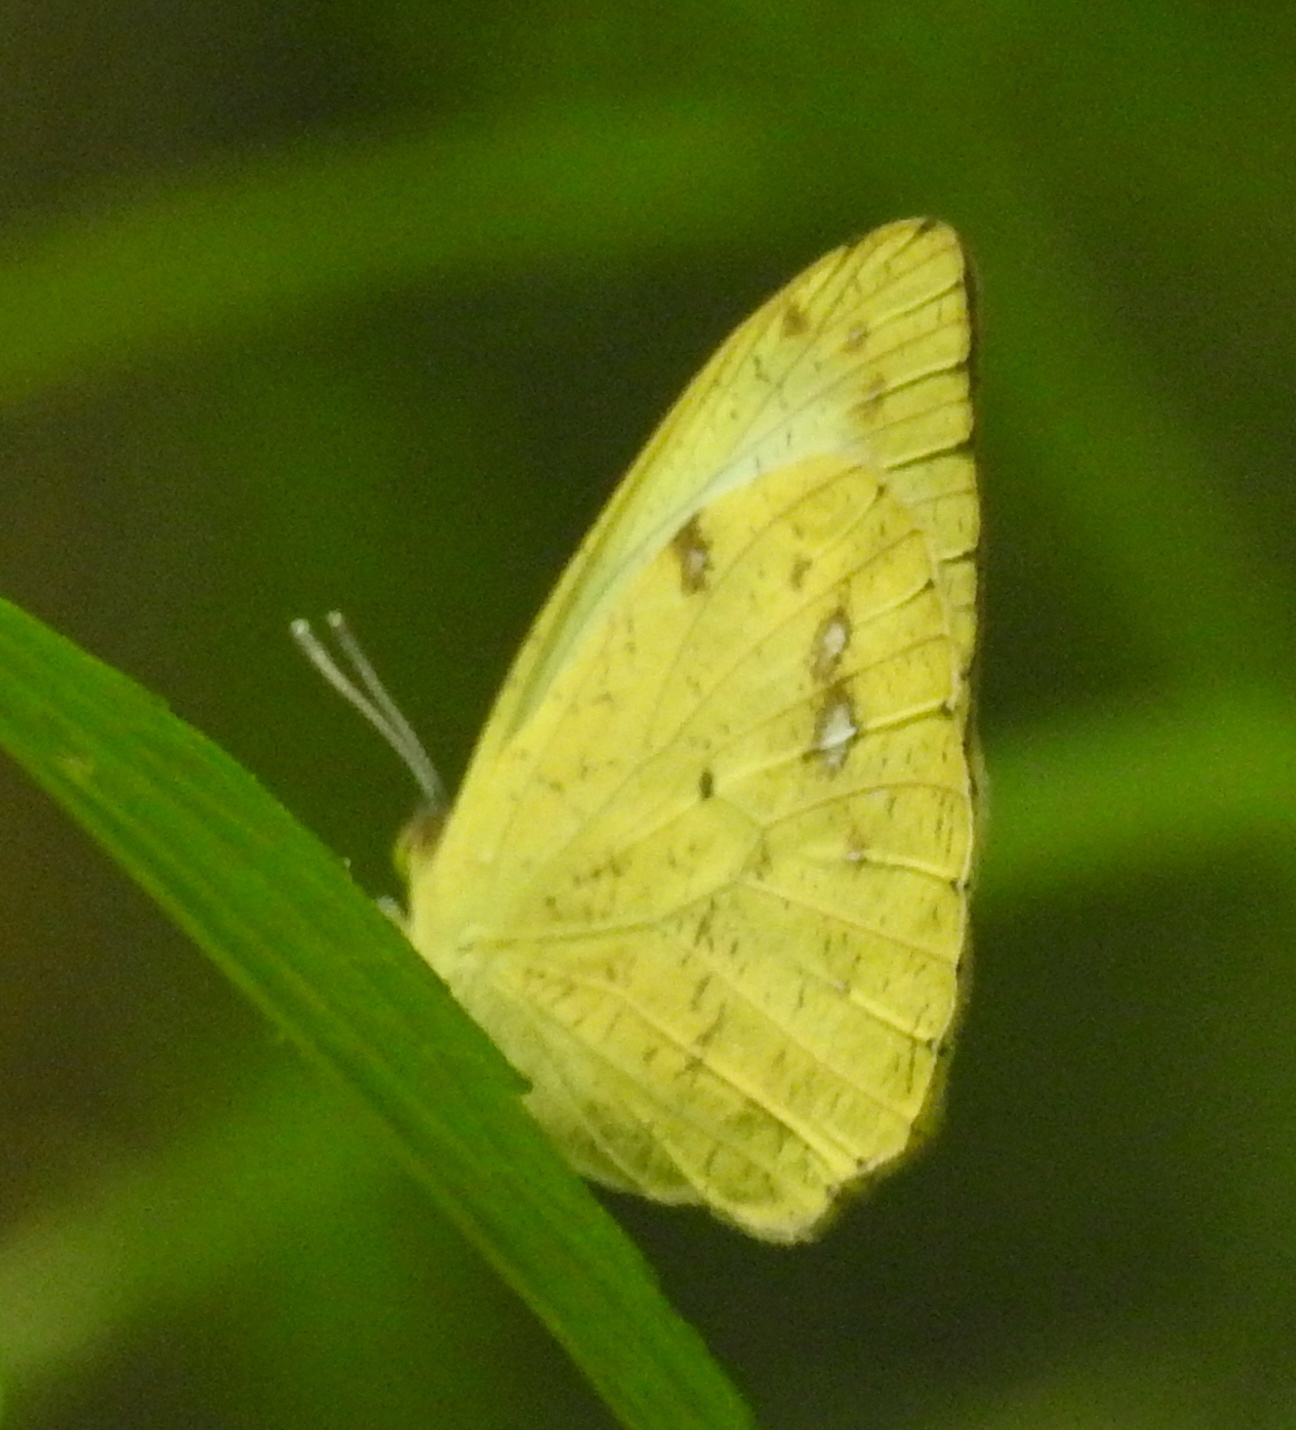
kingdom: Animalia
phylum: Arthropoda
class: Insecta
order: Lepidoptera
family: Pieridae
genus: Ixias
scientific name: Ixias pyrene
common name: Yellow orange tip
